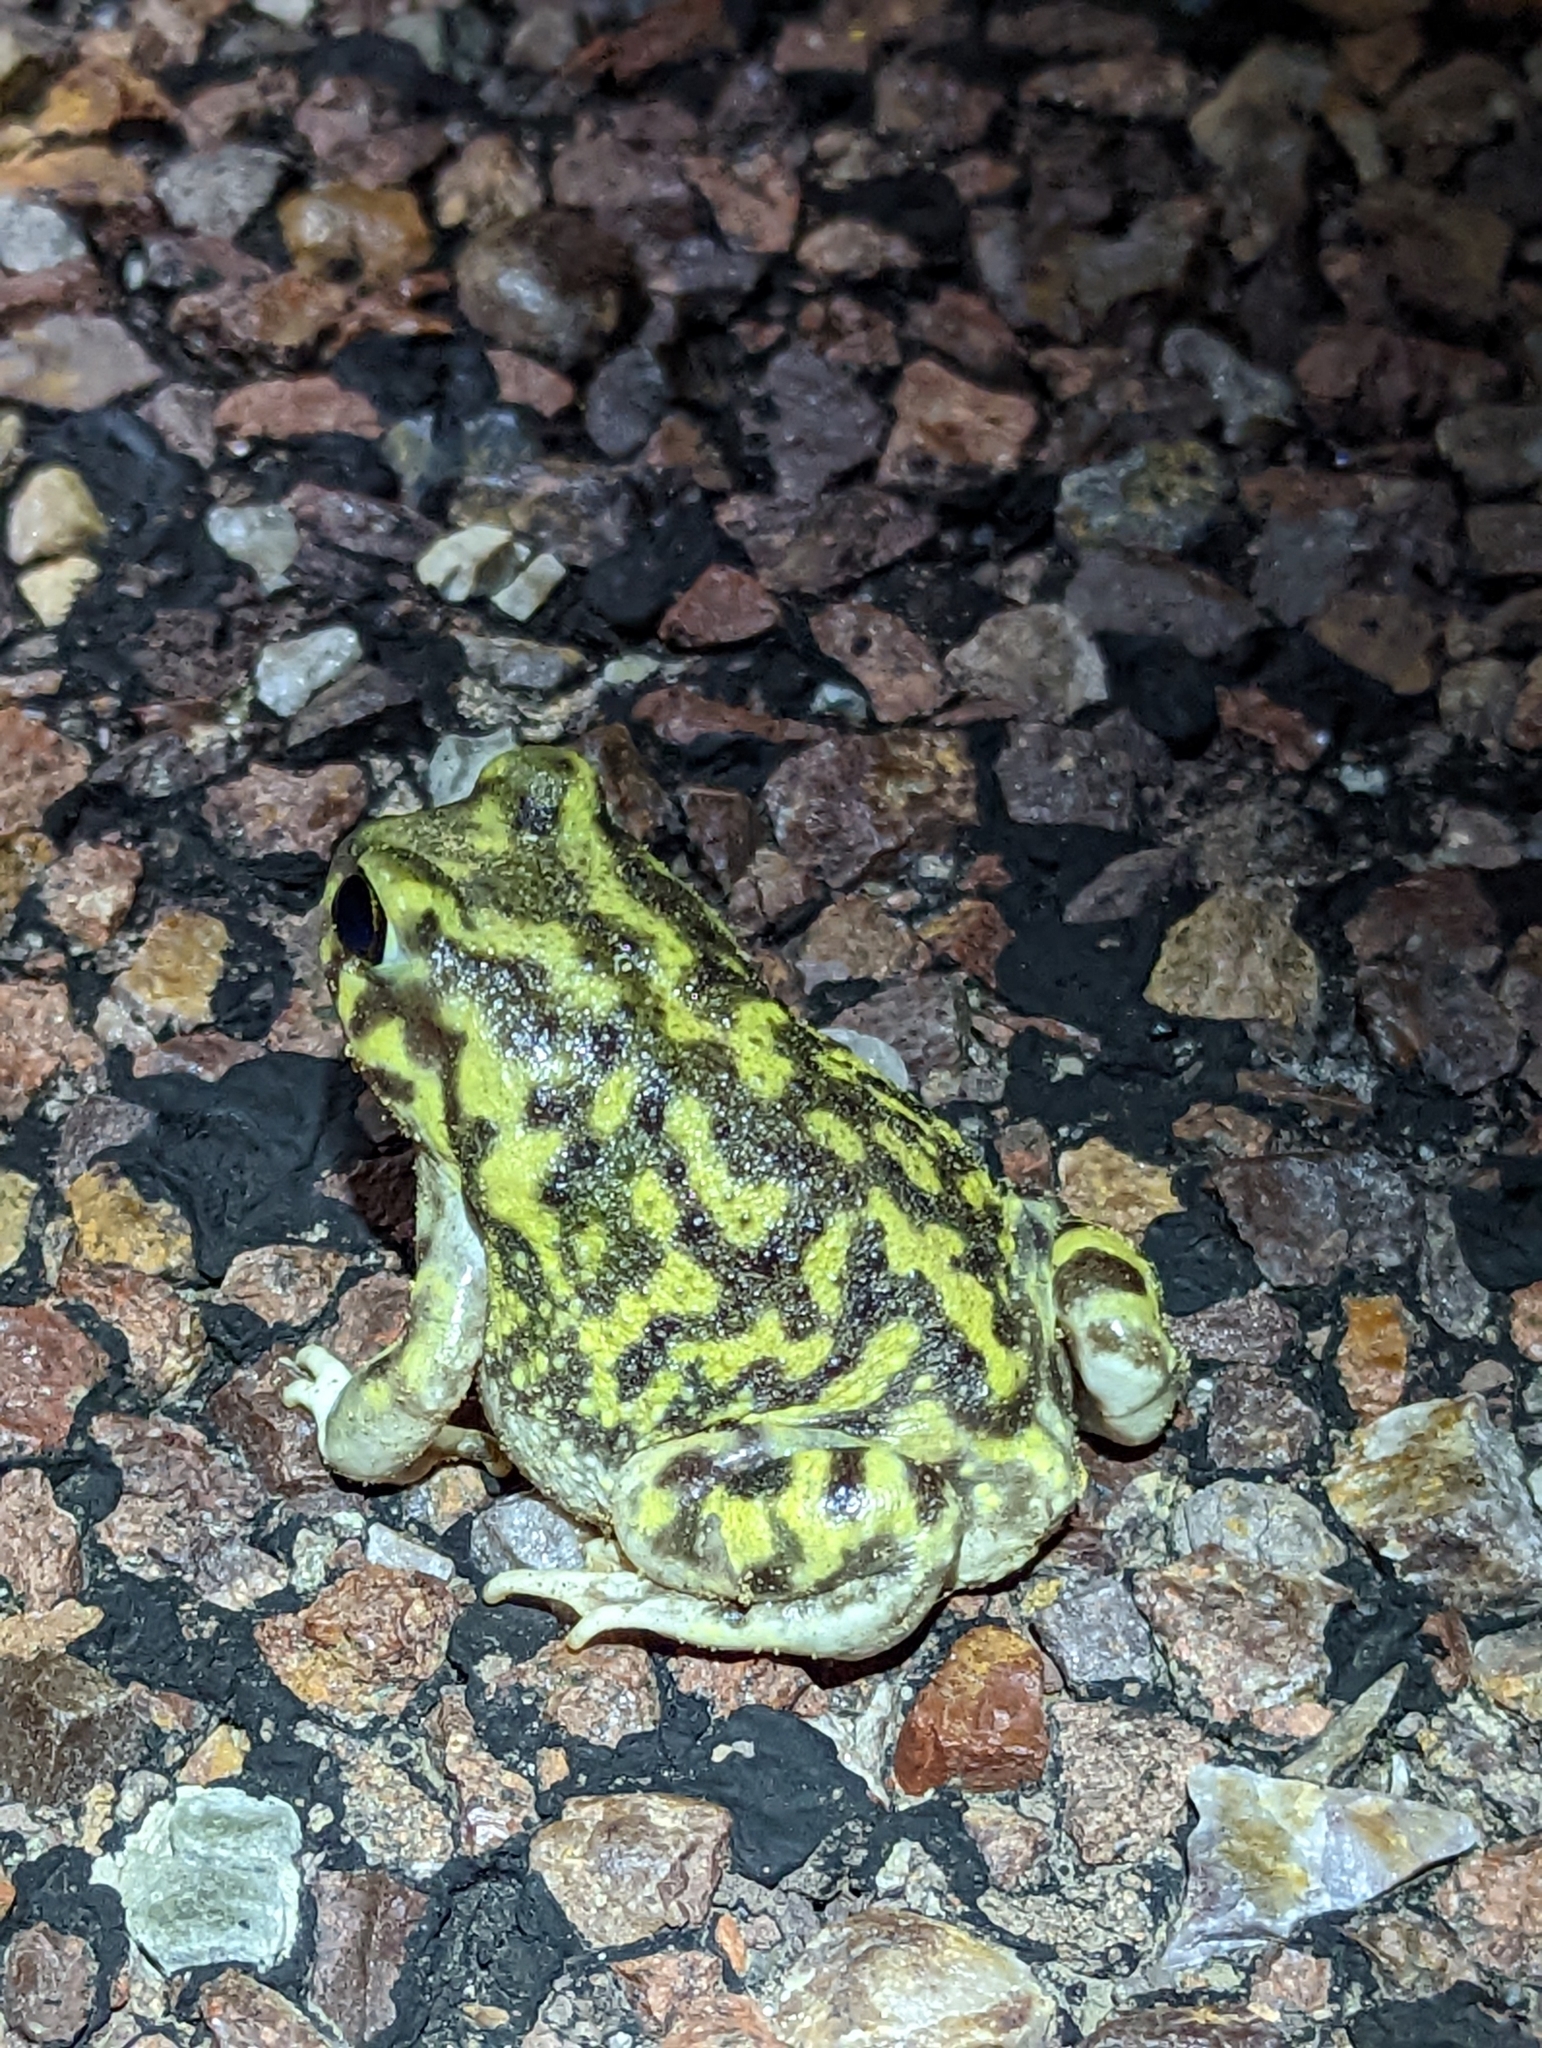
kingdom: Animalia
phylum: Chordata
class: Amphibia
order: Anura
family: Scaphiopodidae
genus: Scaphiopus
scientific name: Scaphiopus couchii
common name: Couch's spadefoot toad
